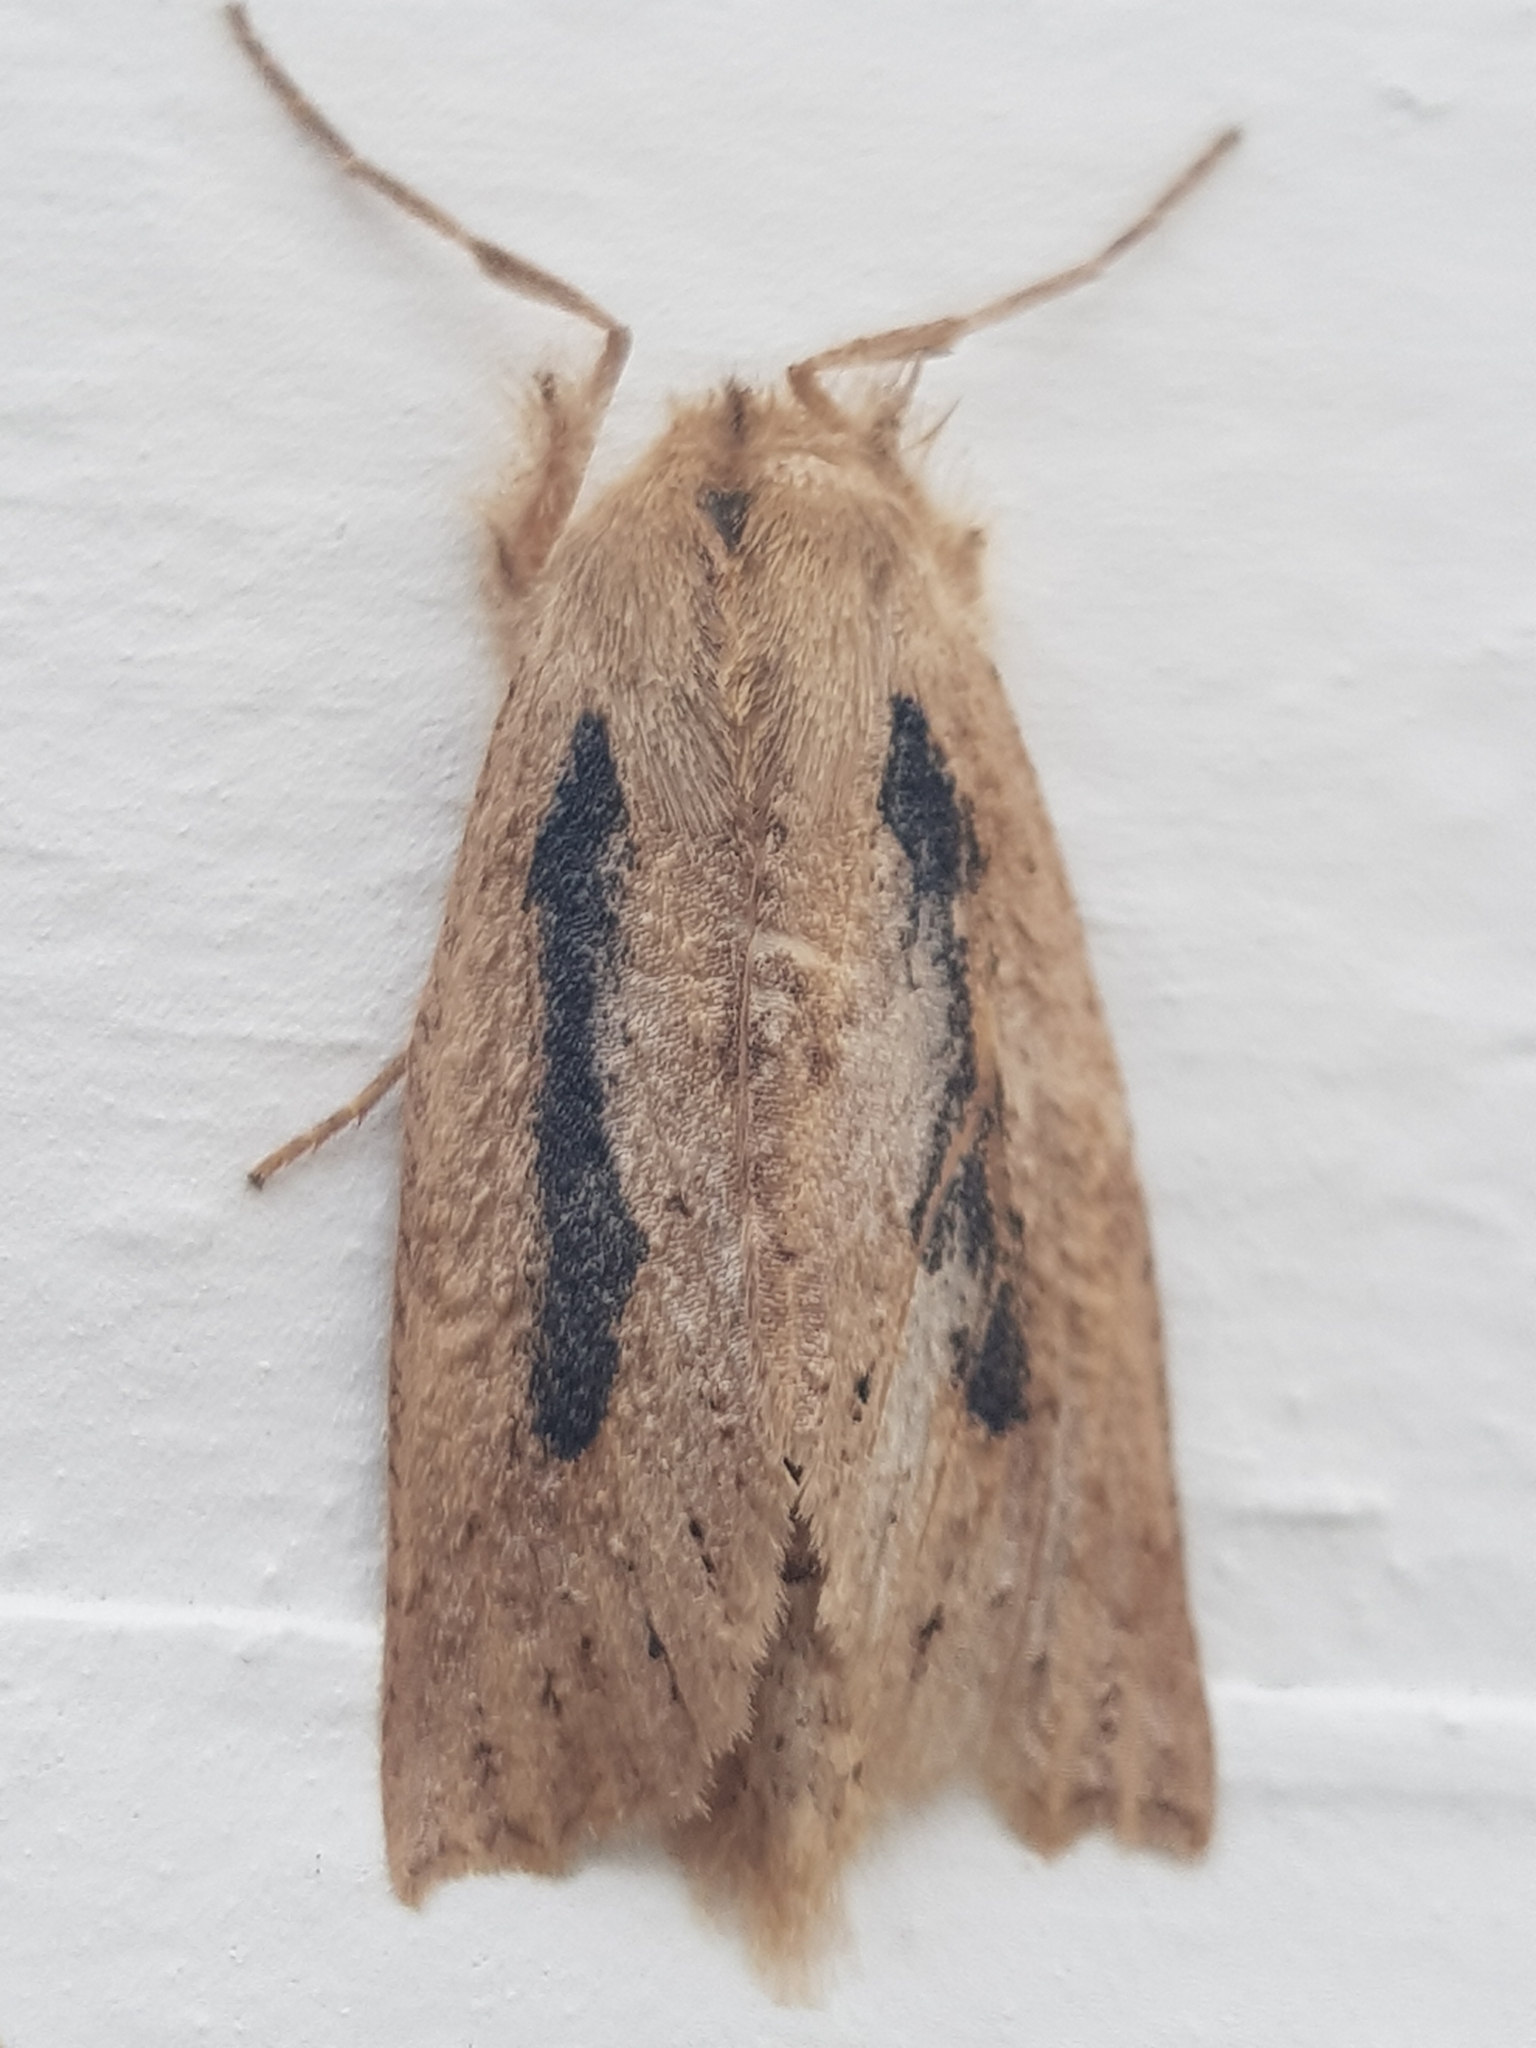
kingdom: Animalia
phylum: Arthropoda
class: Insecta
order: Lepidoptera
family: Geometridae
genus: Declana
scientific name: Declana leptomera
